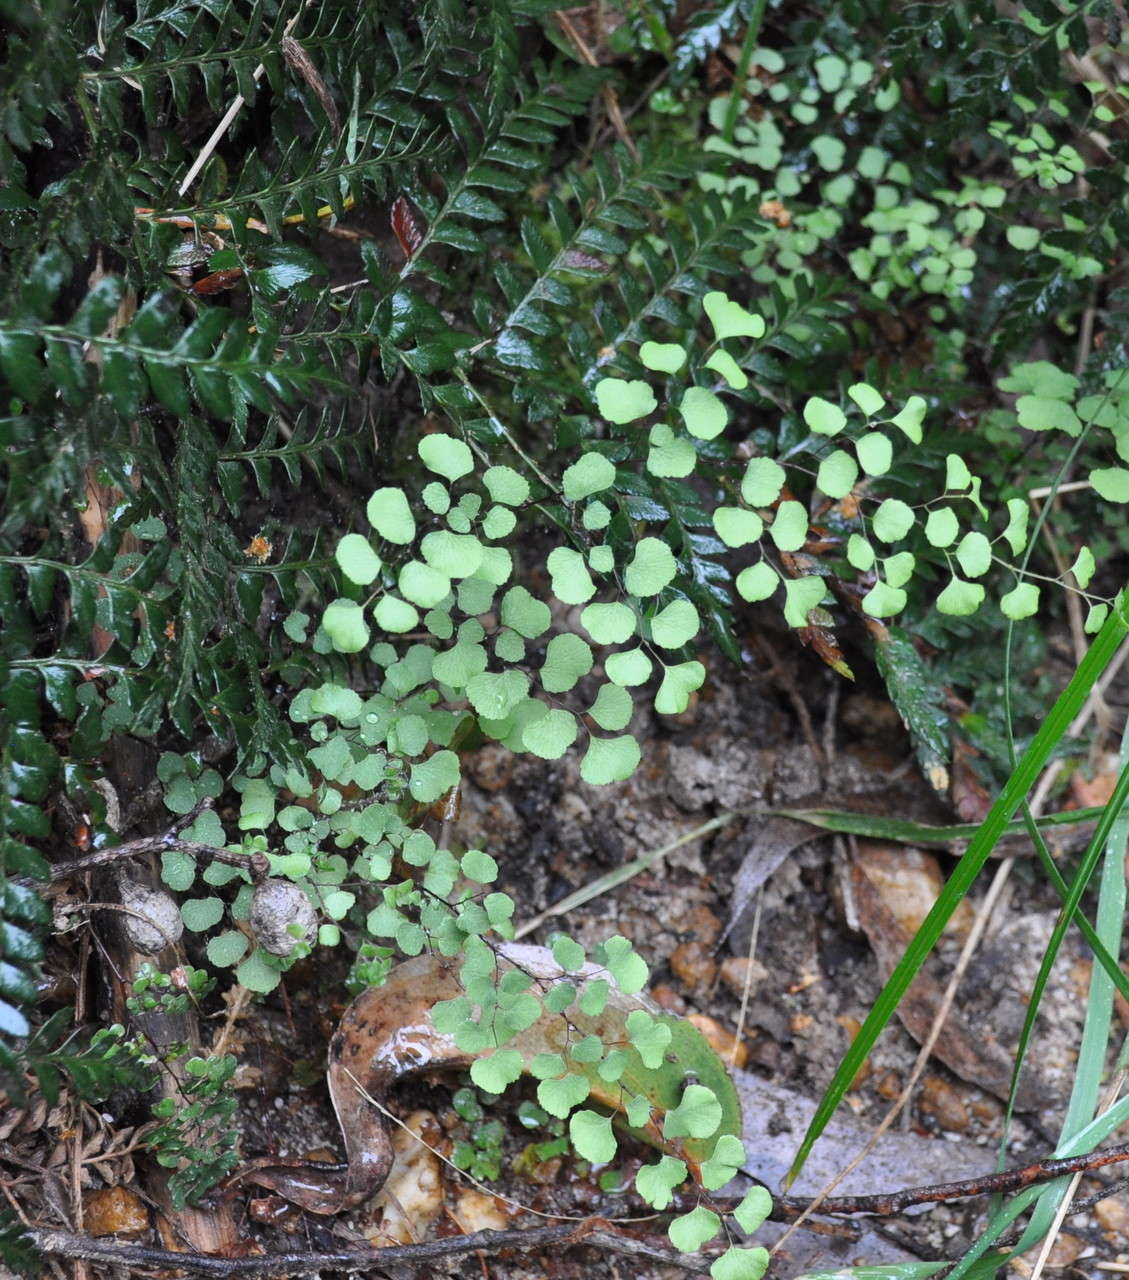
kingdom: Plantae
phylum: Tracheophyta
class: Polypodiopsida
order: Polypodiales
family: Pteridaceae
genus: Adiantum
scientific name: Adiantum aethiopicum
